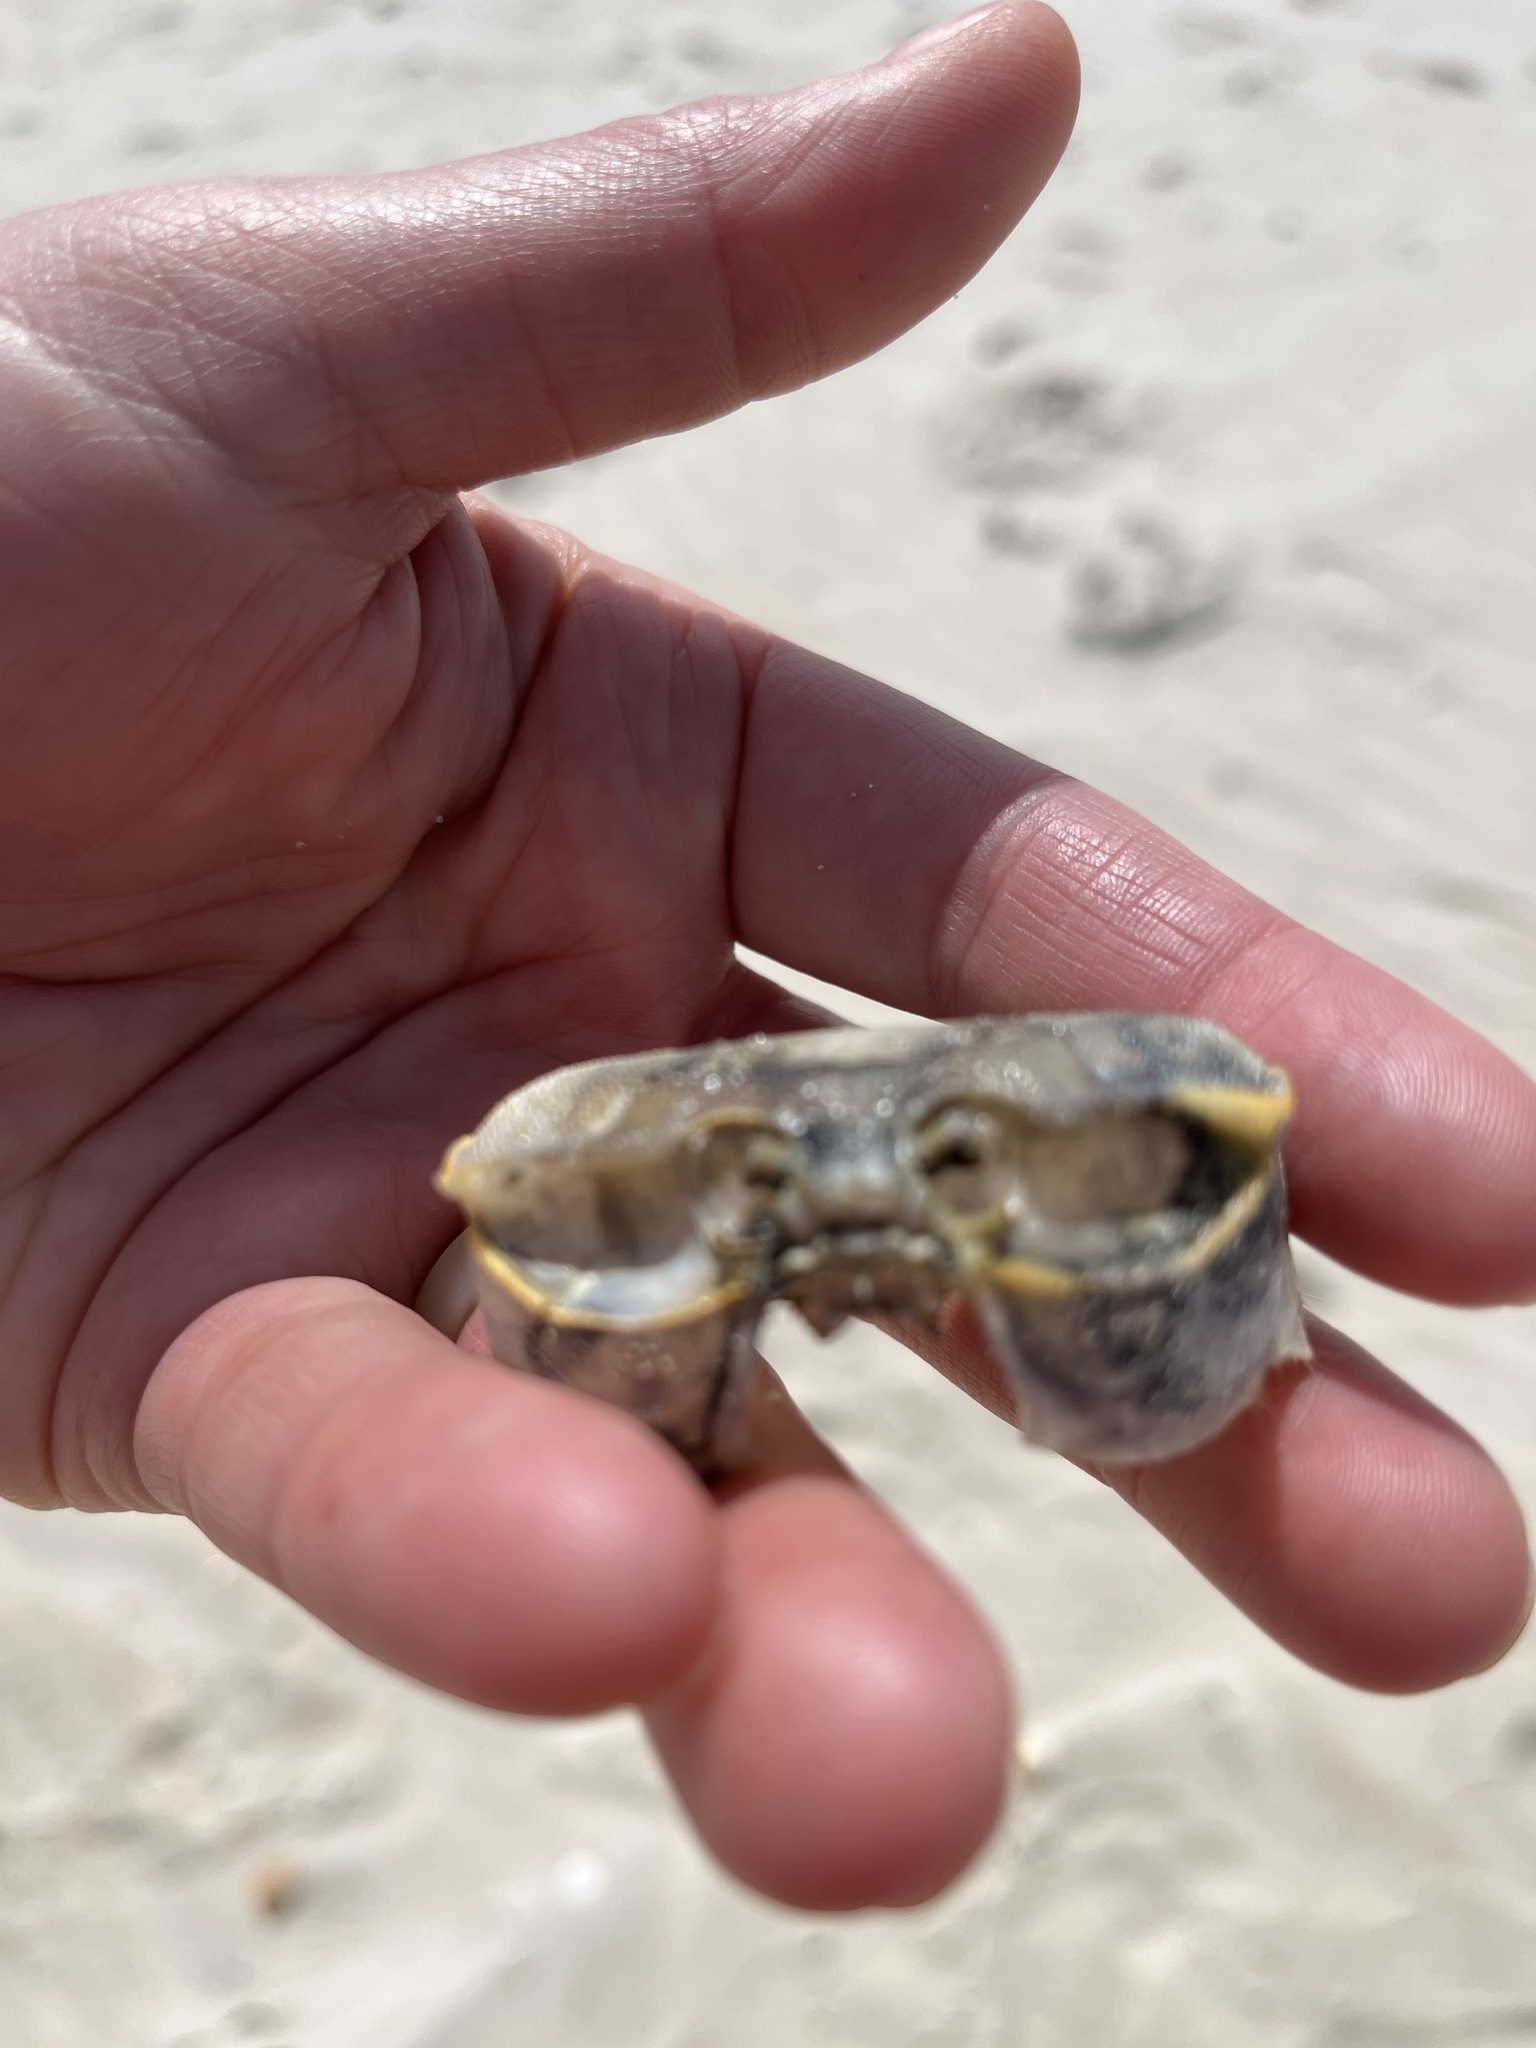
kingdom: Animalia
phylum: Arthropoda
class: Malacostraca
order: Decapoda
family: Ocypodidae
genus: Ocypode
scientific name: Ocypode quadrata
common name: Ghost crab
